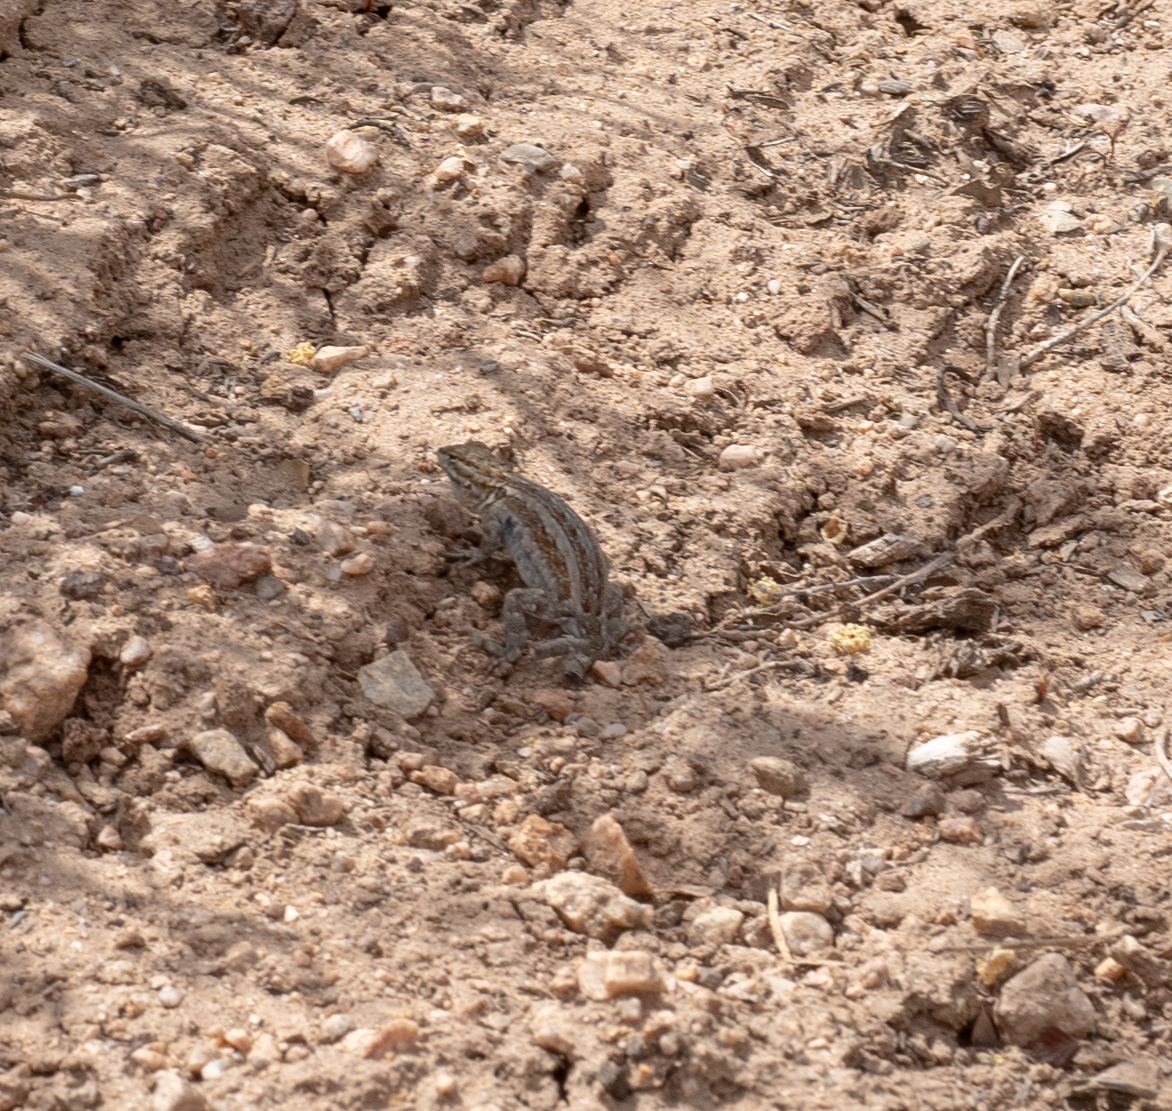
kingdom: Animalia
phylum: Chordata
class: Squamata
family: Phrynosomatidae
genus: Uta
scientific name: Uta stansburiana
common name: Side-blotched lizard
